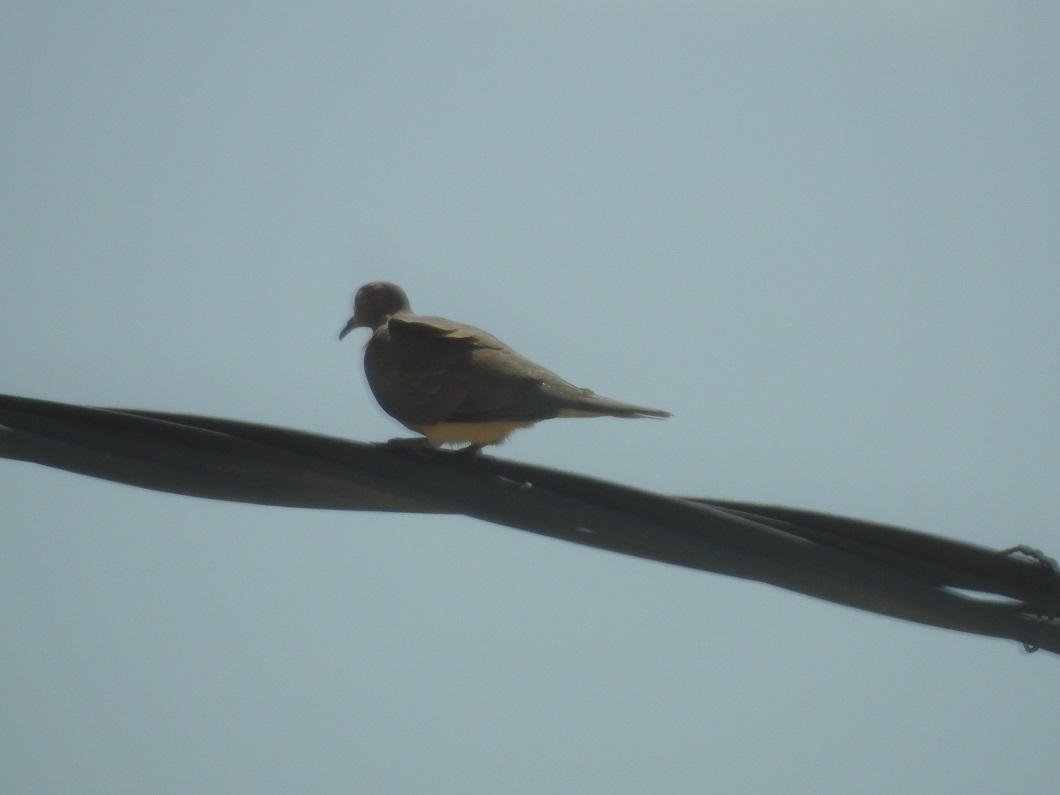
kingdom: Animalia
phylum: Chordata
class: Aves
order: Columbiformes
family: Columbidae
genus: Spilopelia
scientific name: Spilopelia senegalensis
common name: Laughing dove
